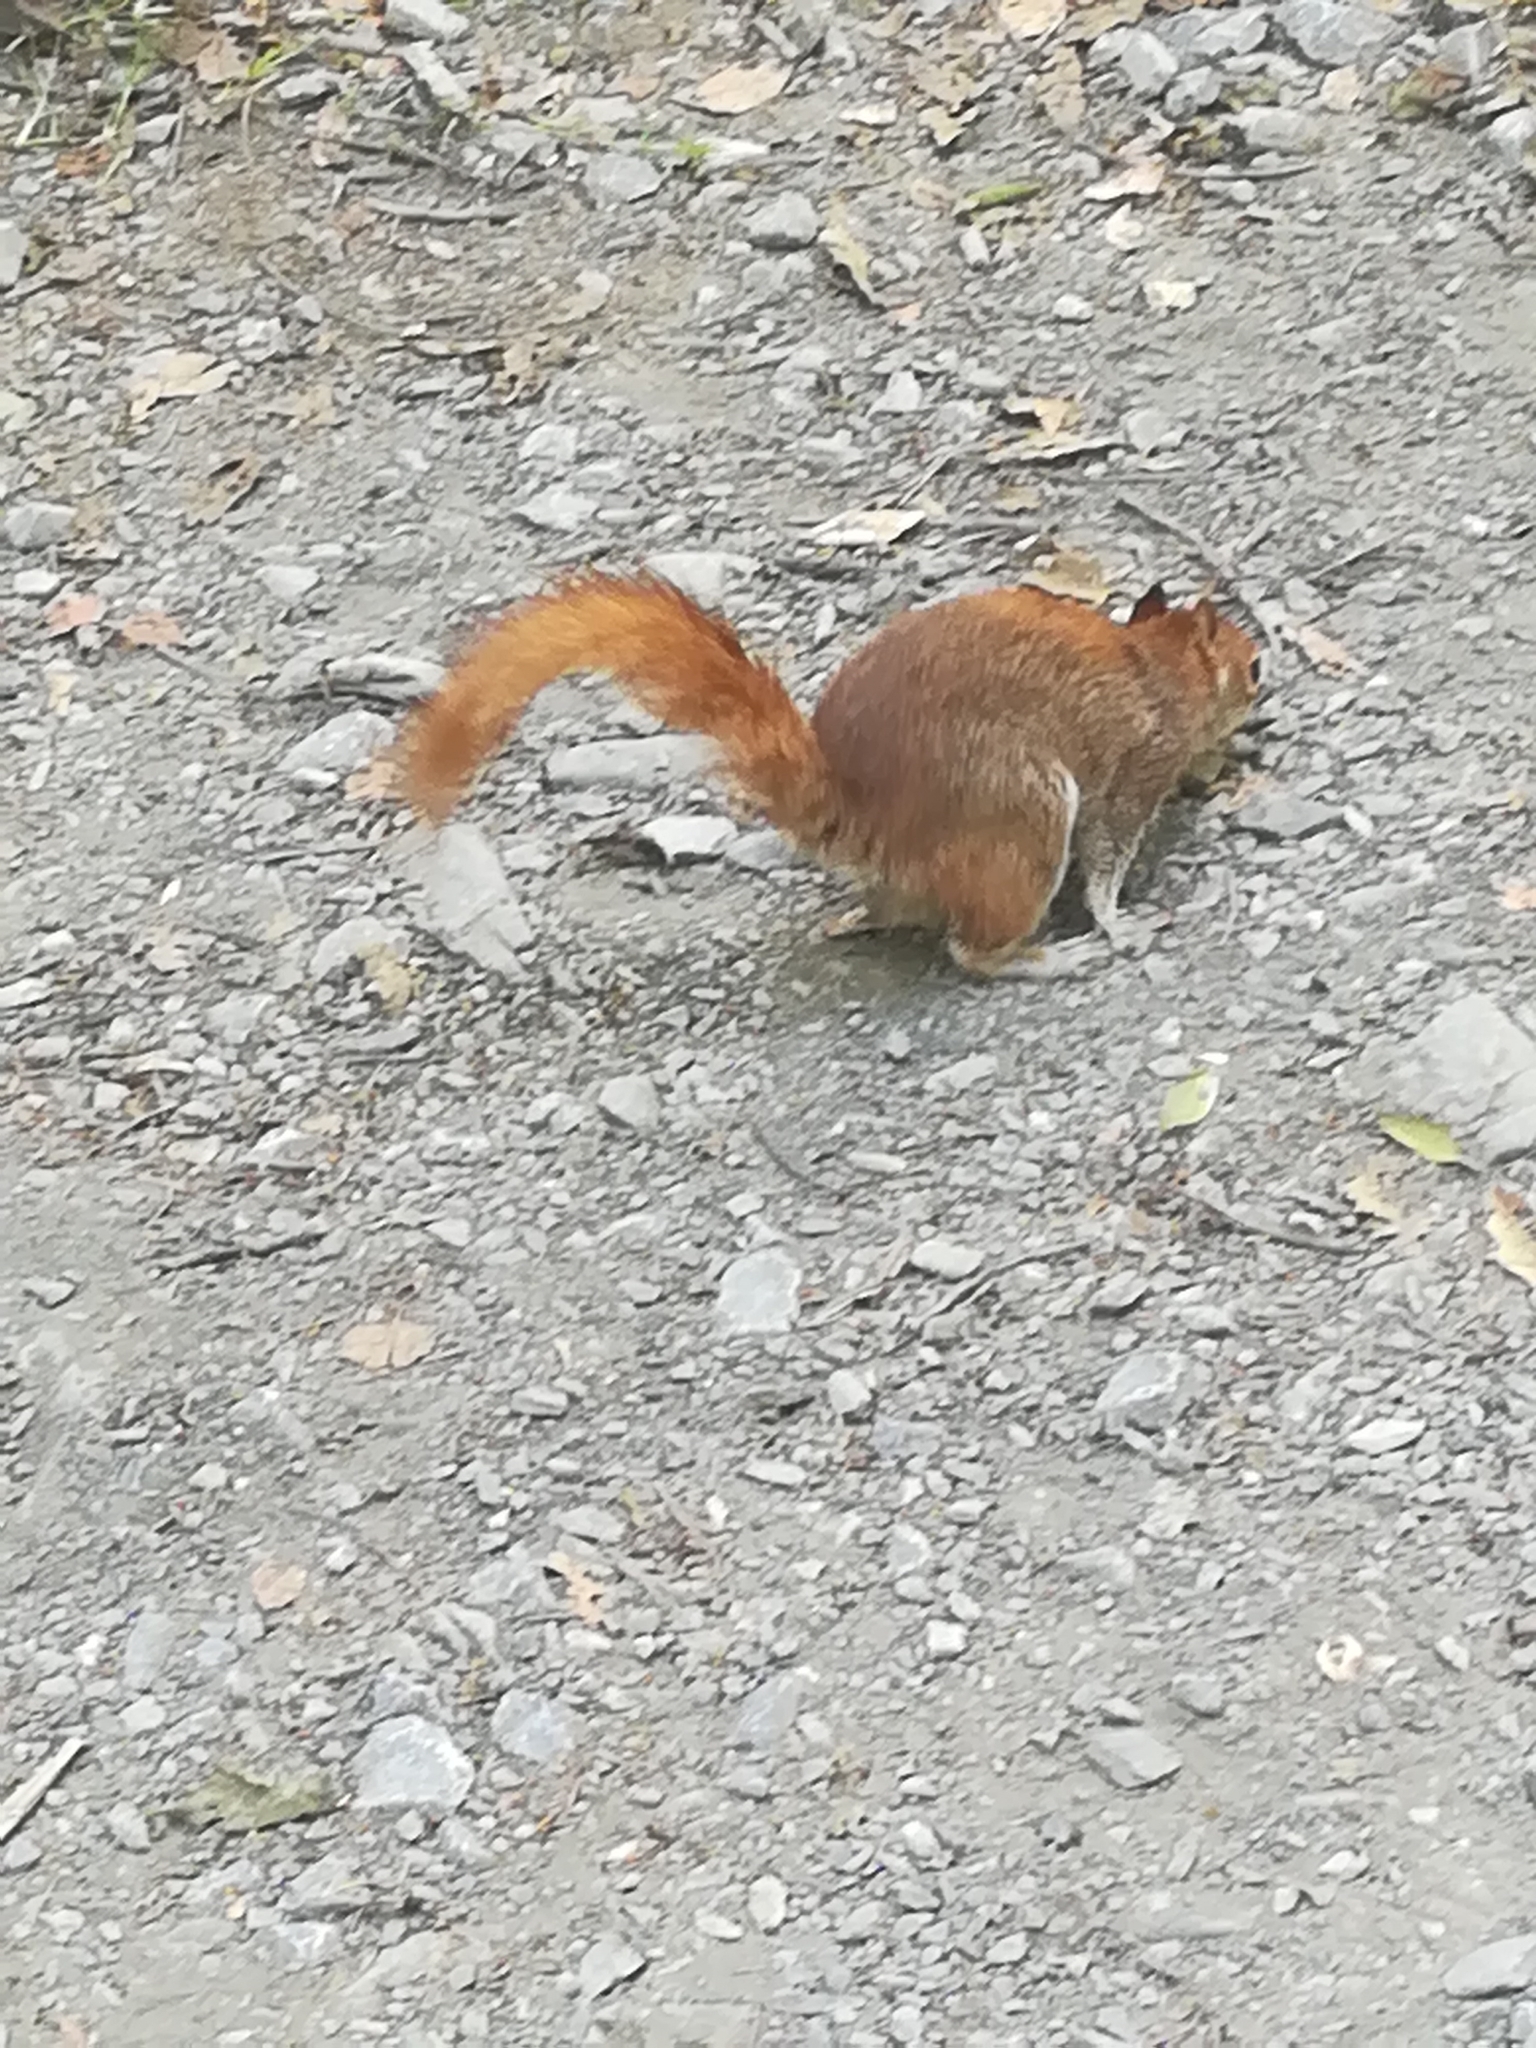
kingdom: Animalia
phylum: Chordata
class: Mammalia
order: Rodentia
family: Sciuridae
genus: Sciurus
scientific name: Sciurus alleni
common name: Allen's squirrel
